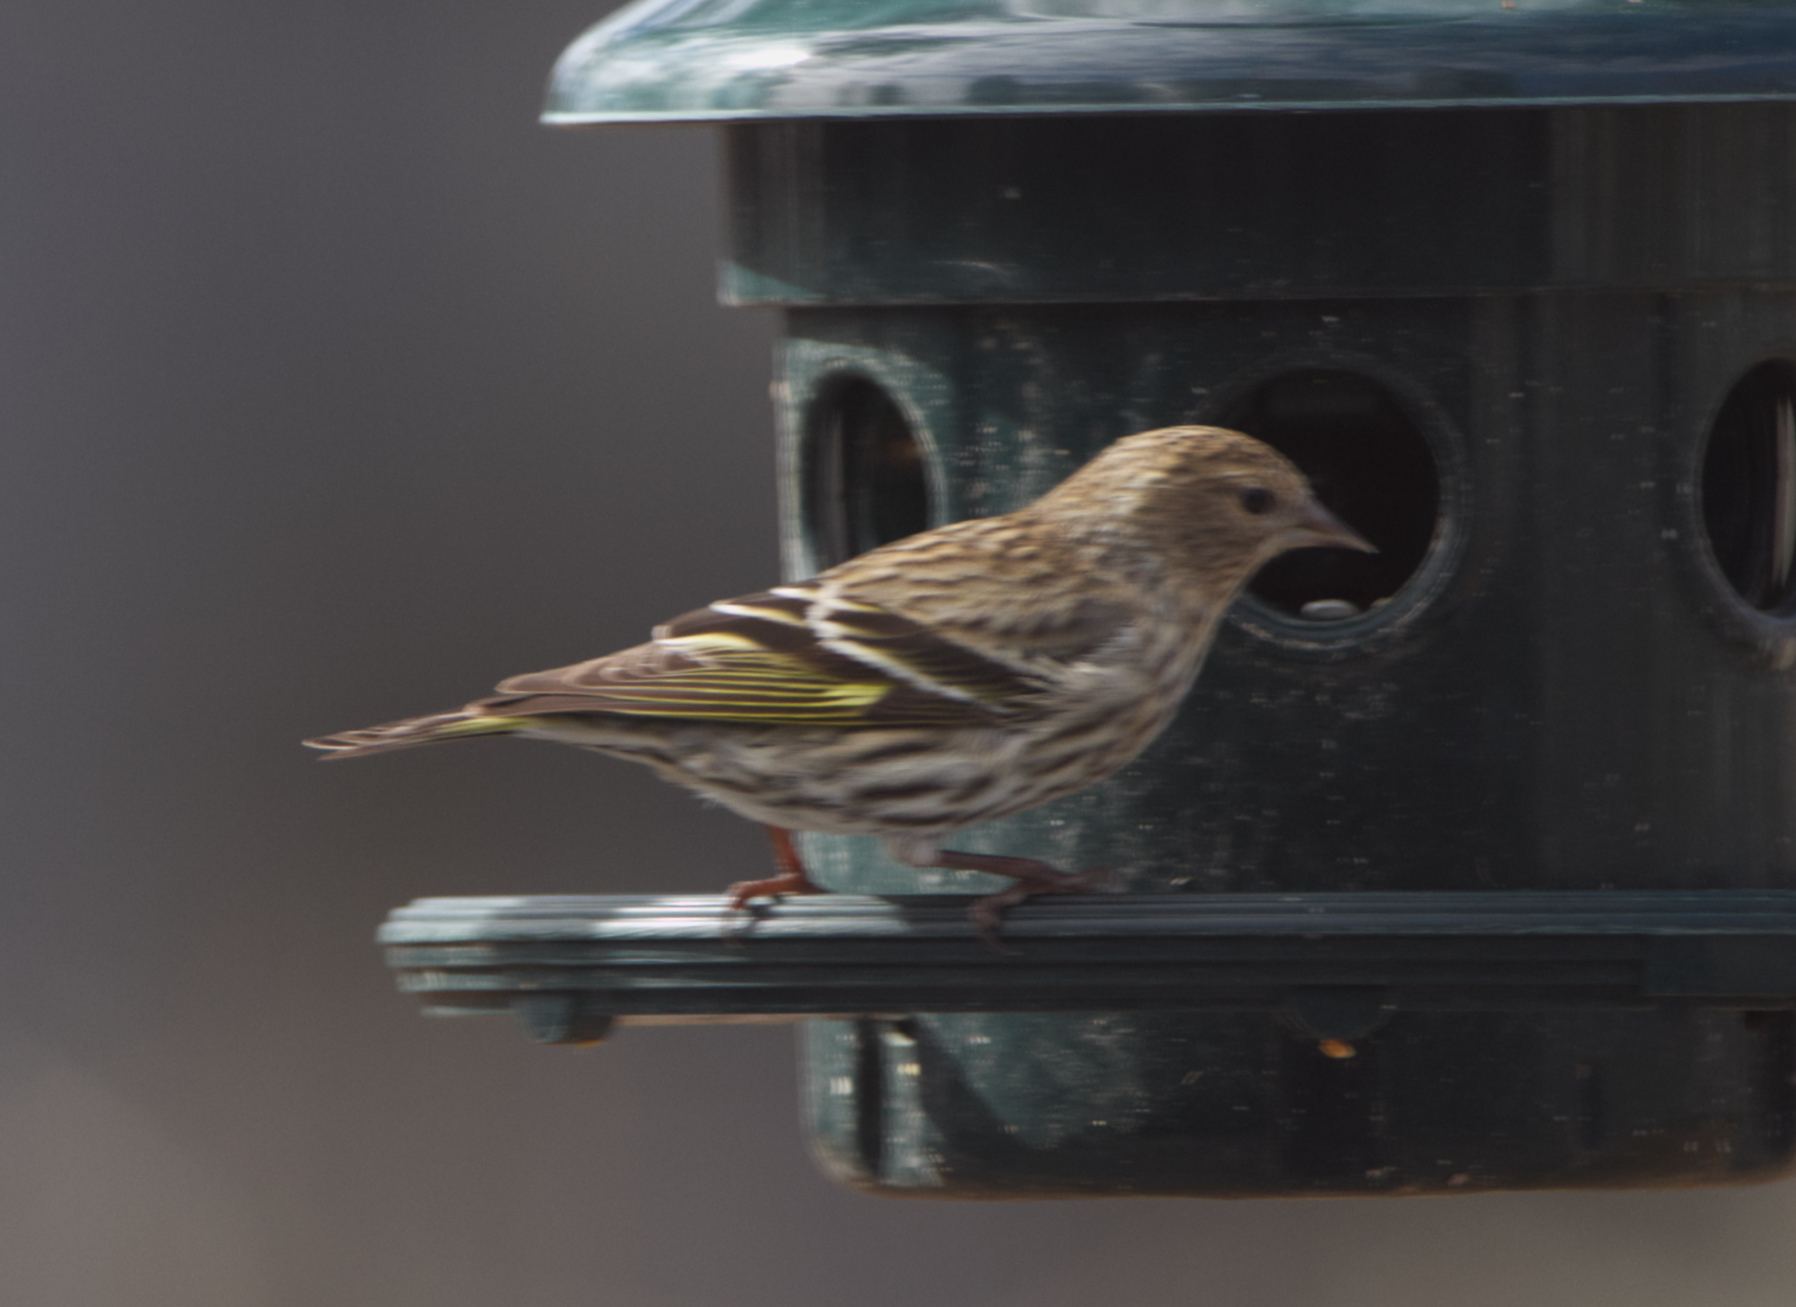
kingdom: Animalia
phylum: Chordata
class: Aves
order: Passeriformes
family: Fringillidae
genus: Spinus
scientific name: Spinus pinus
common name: Pine siskin
